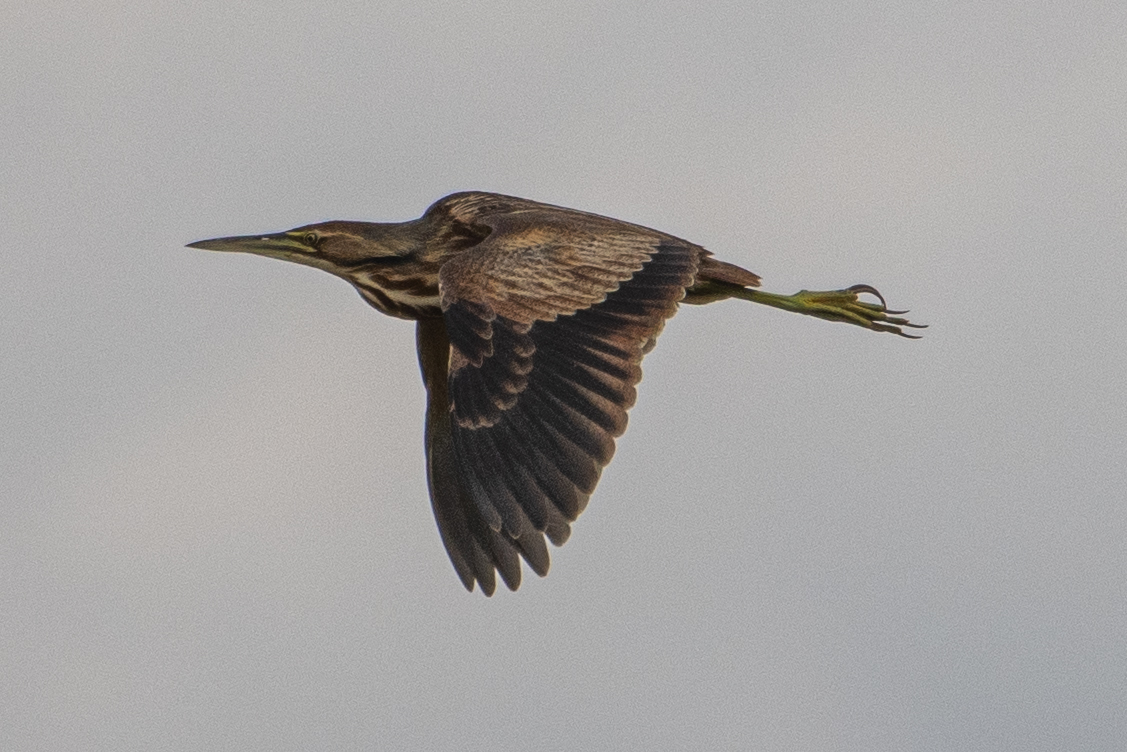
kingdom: Animalia
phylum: Chordata
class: Aves
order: Pelecaniformes
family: Ardeidae
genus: Botaurus
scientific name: Botaurus lentiginosus
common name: American bittern
